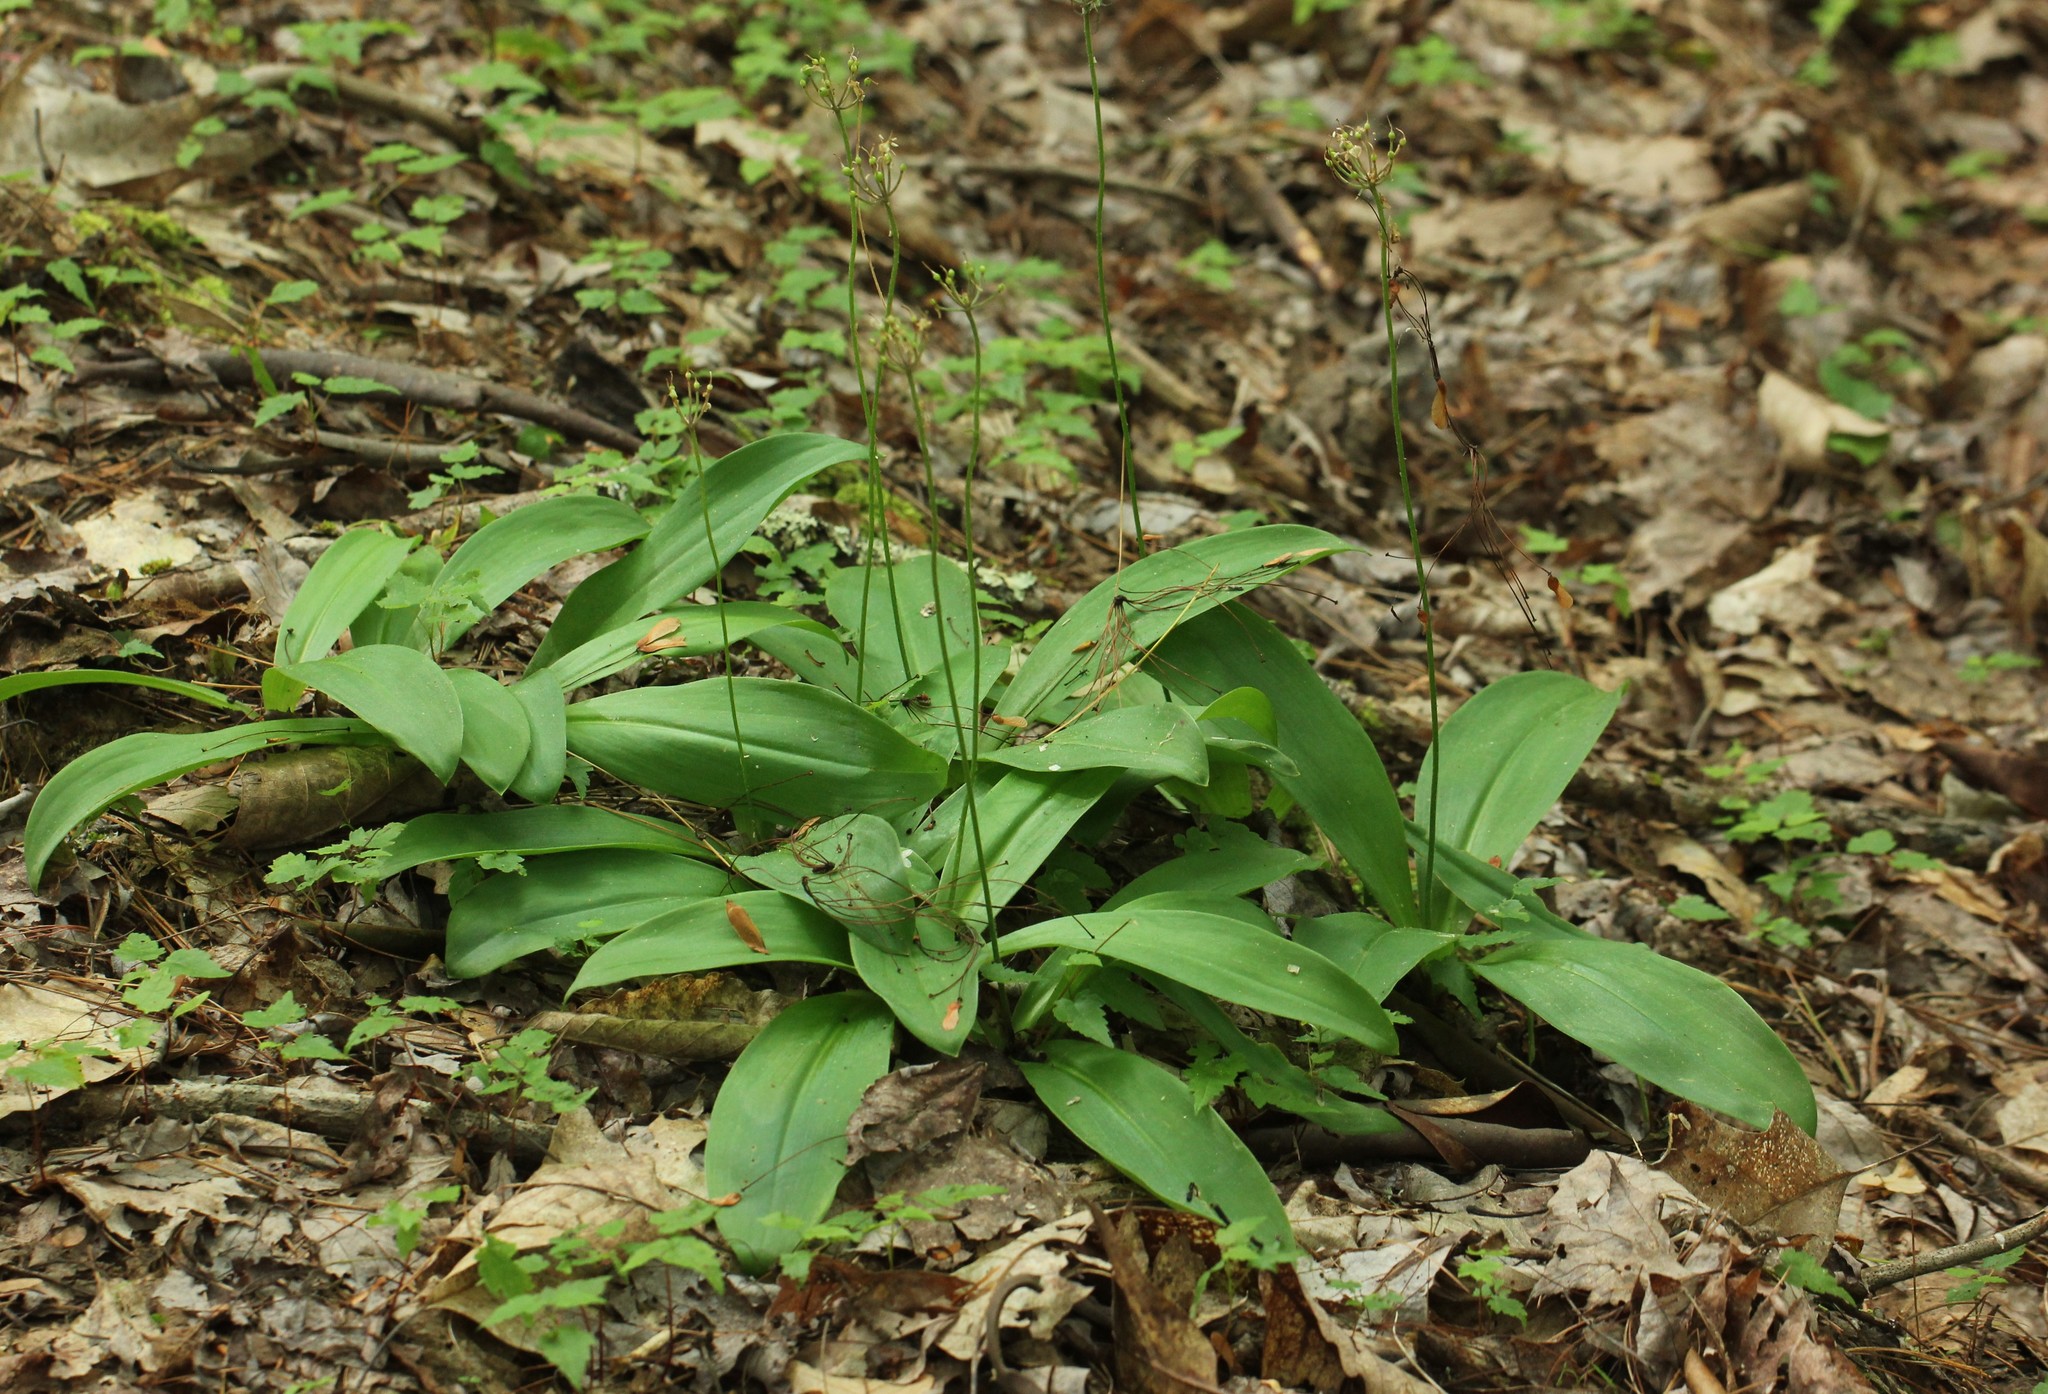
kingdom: Plantae
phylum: Tracheophyta
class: Liliopsida
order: Liliales
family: Liliaceae
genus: Clintonia
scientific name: Clintonia umbellulata
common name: Speckle wood-lily
